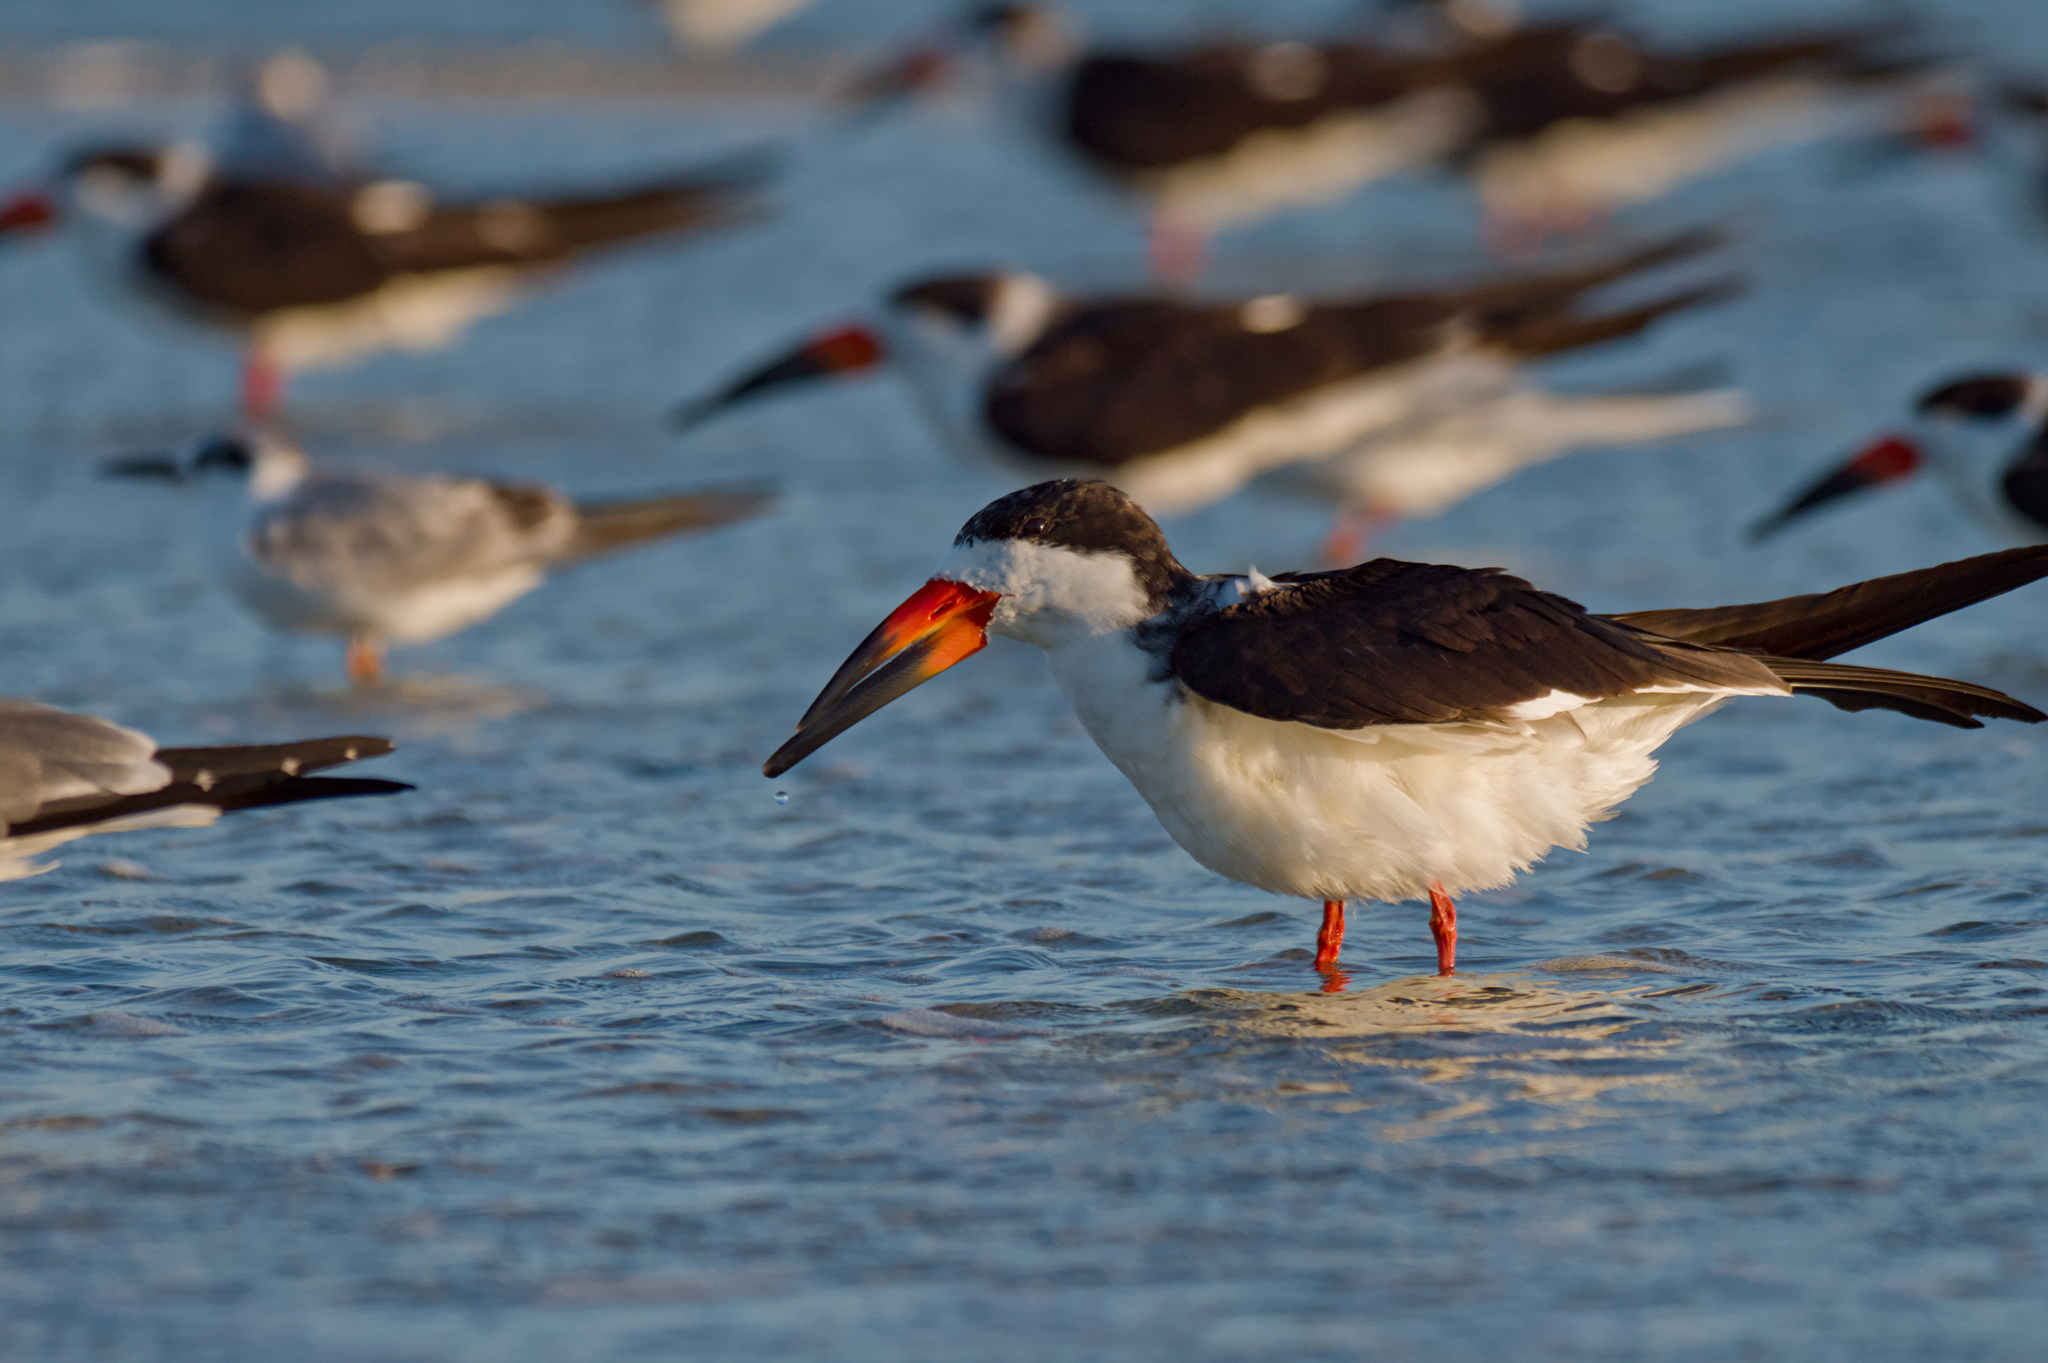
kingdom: Animalia
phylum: Chordata
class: Aves
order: Charadriiformes
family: Laridae
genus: Rynchops
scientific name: Rynchops niger
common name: Black skimmer
